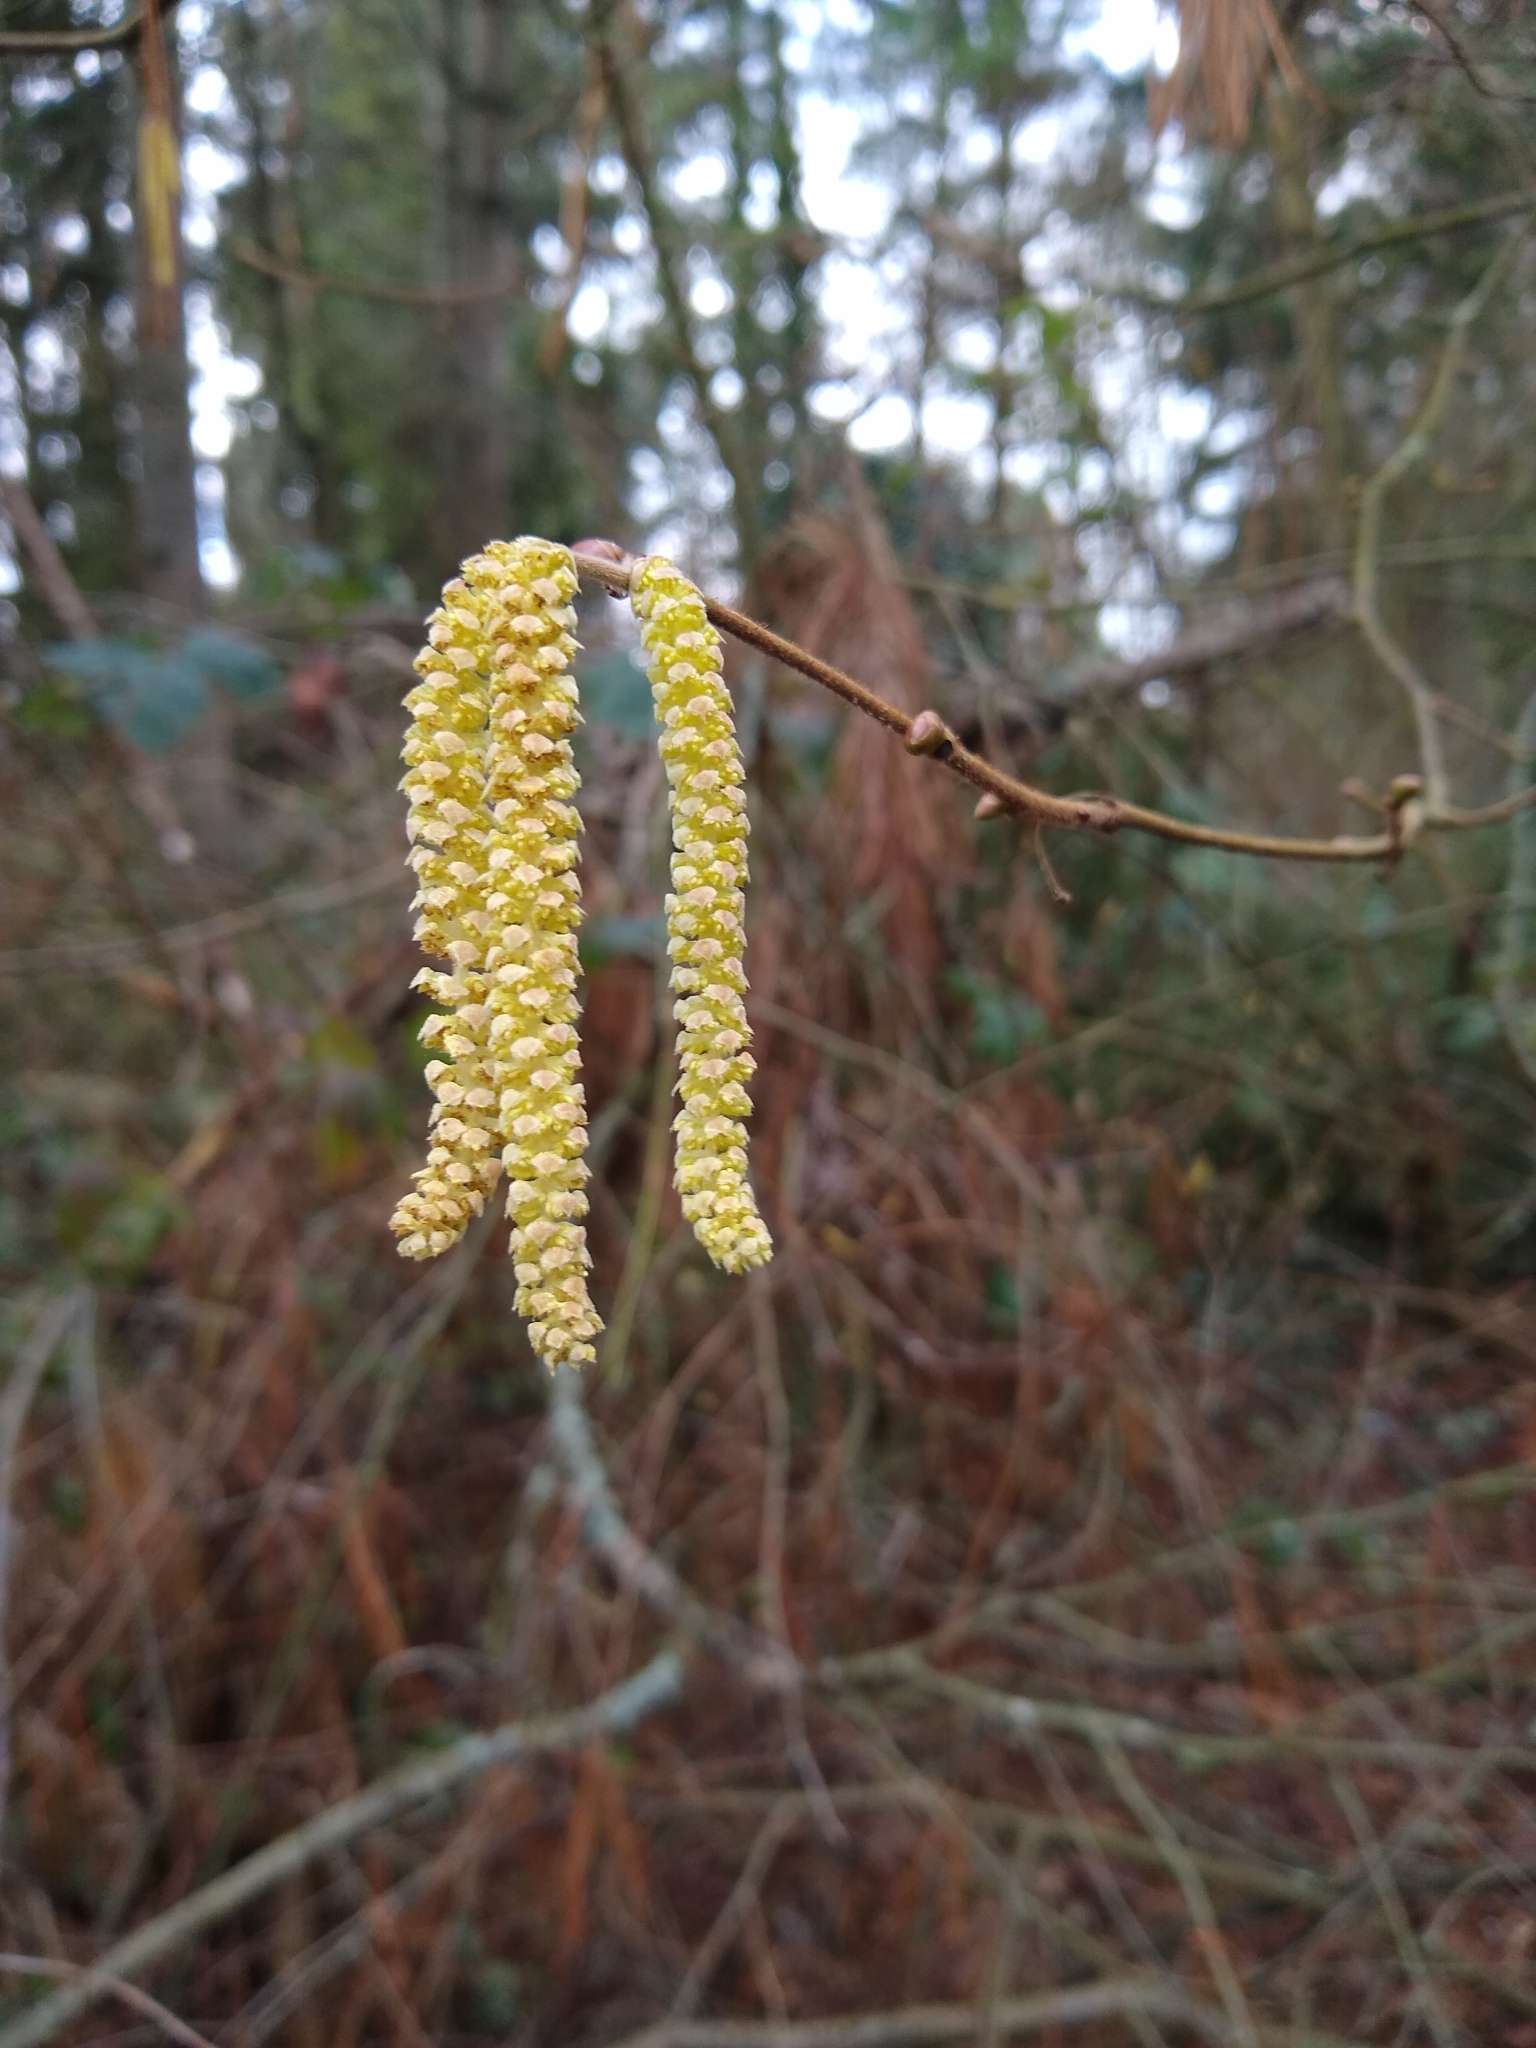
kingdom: Plantae
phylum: Tracheophyta
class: Magnoliopsida
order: Fagales
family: Betulaceae
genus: Corylus
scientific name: Corylus cornuta
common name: Beaked hazel
